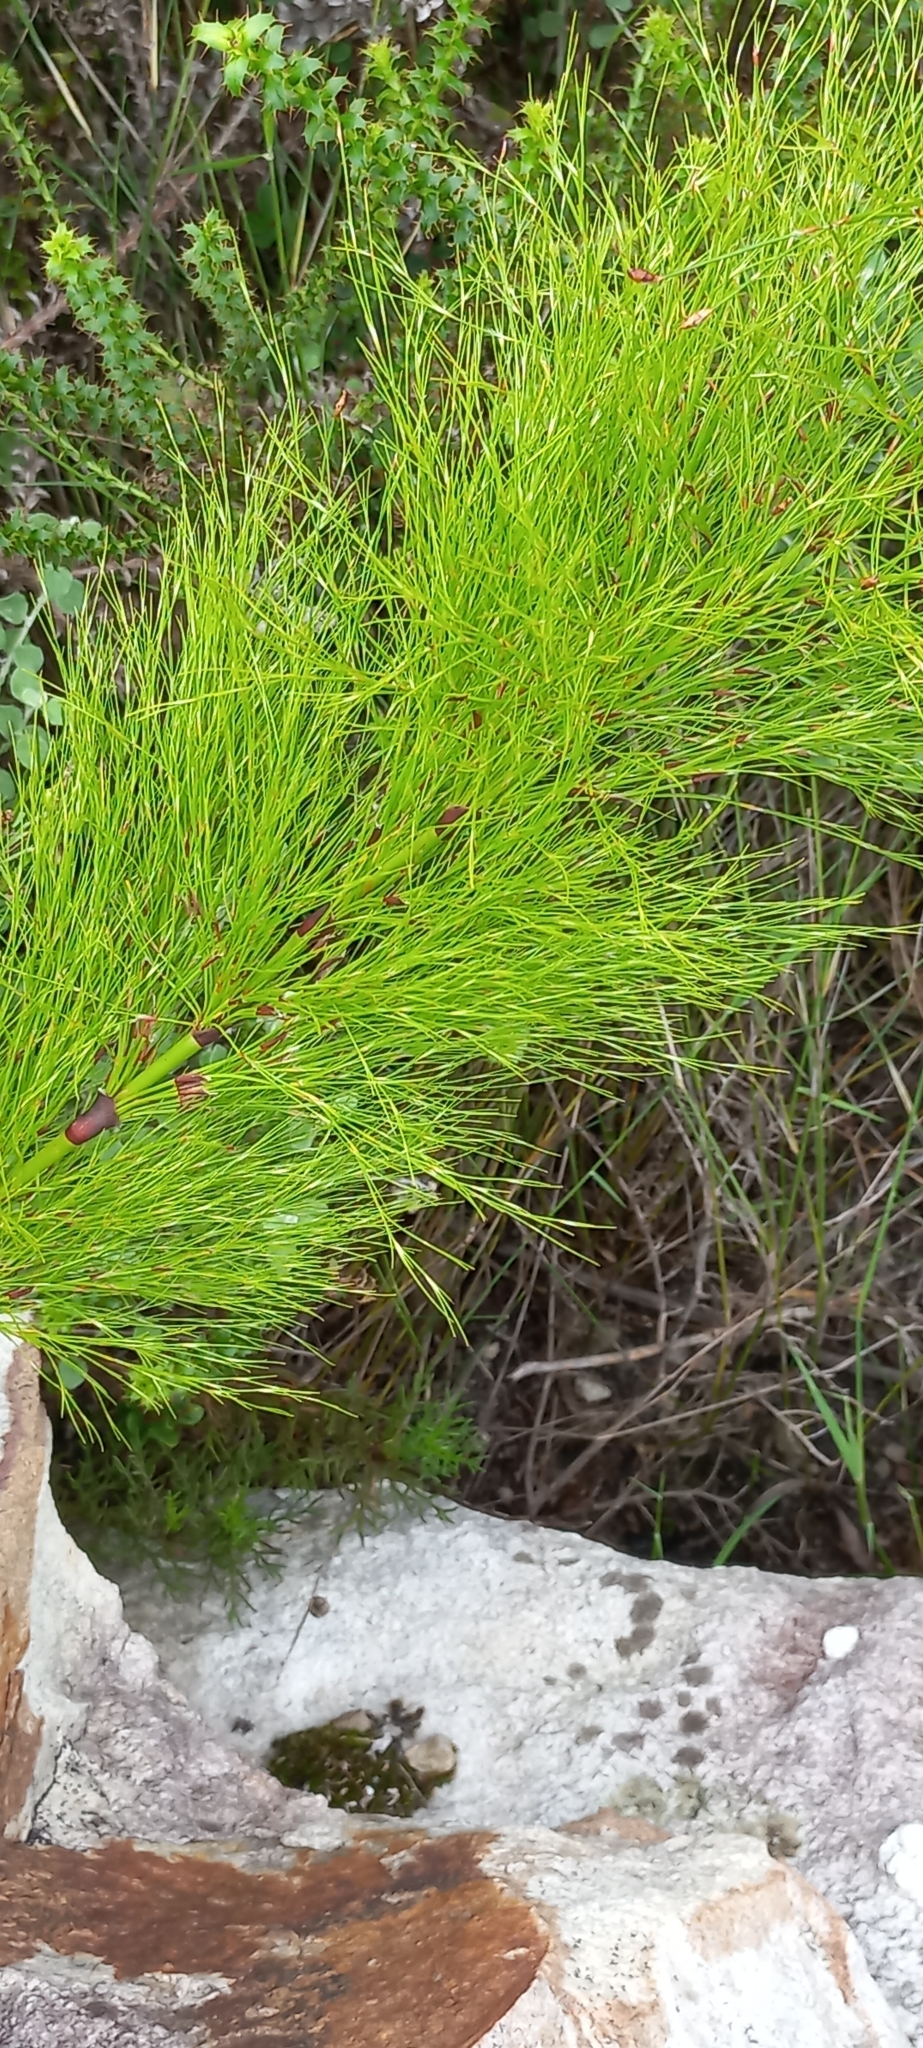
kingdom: Plantae
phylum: Tracheophyta
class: Liliopsida
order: Poales
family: Restionaceae
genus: Restio
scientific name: Restio subverticillatus
